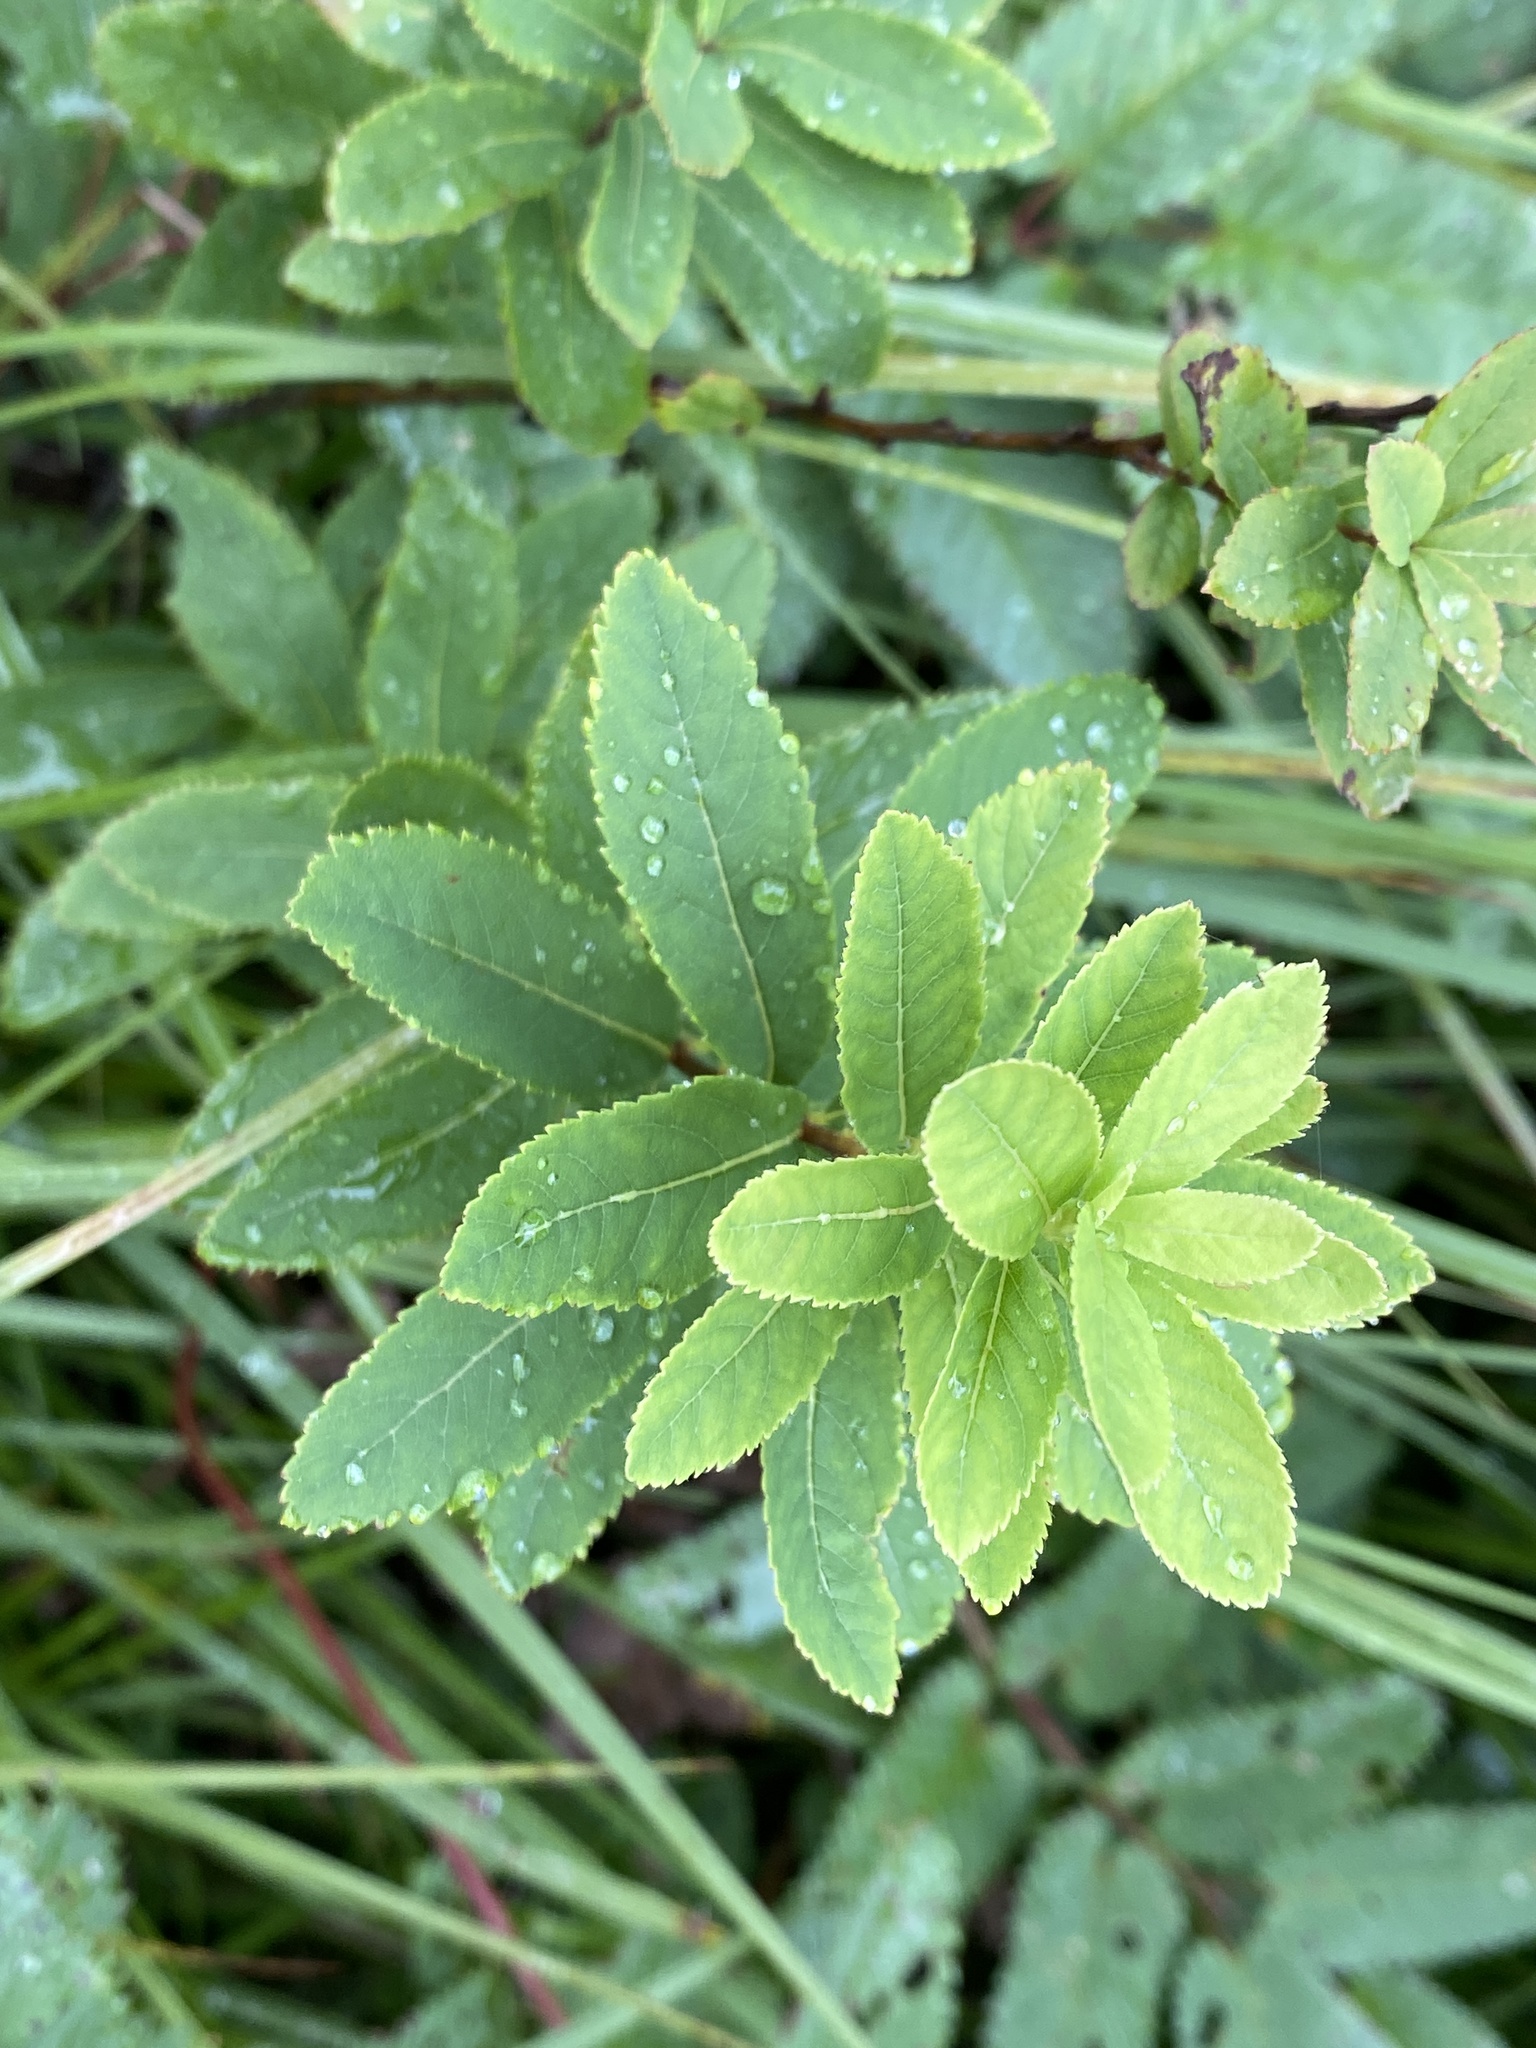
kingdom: Plantae
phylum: Tracheophyta
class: Magnoliopsida
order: Rosales
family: Rosaceae
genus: Spiraea
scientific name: Spiraea alba
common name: Pale bridewort
